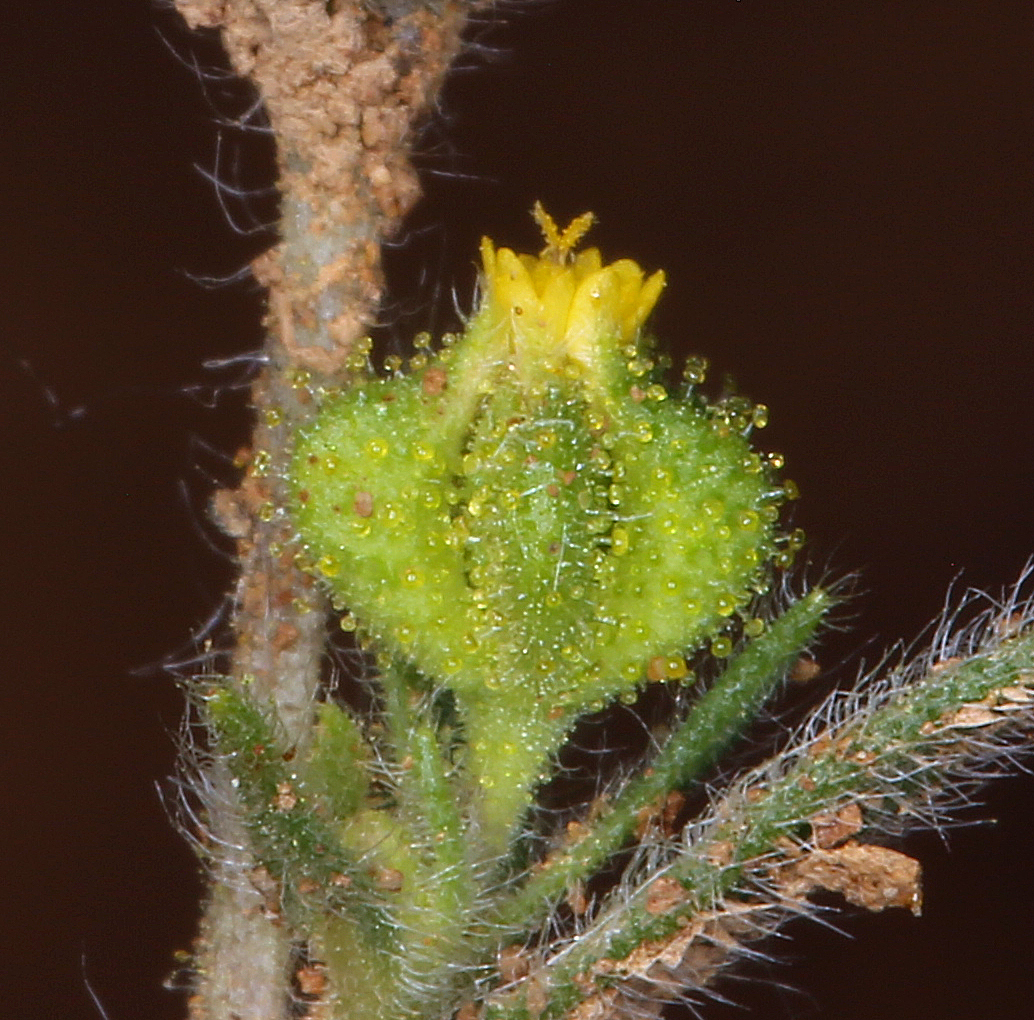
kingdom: Plantae
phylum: Tracheophyta
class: Magnoliopsida
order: Asterales
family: Asteraceae
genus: Madia
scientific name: Madia exigua
